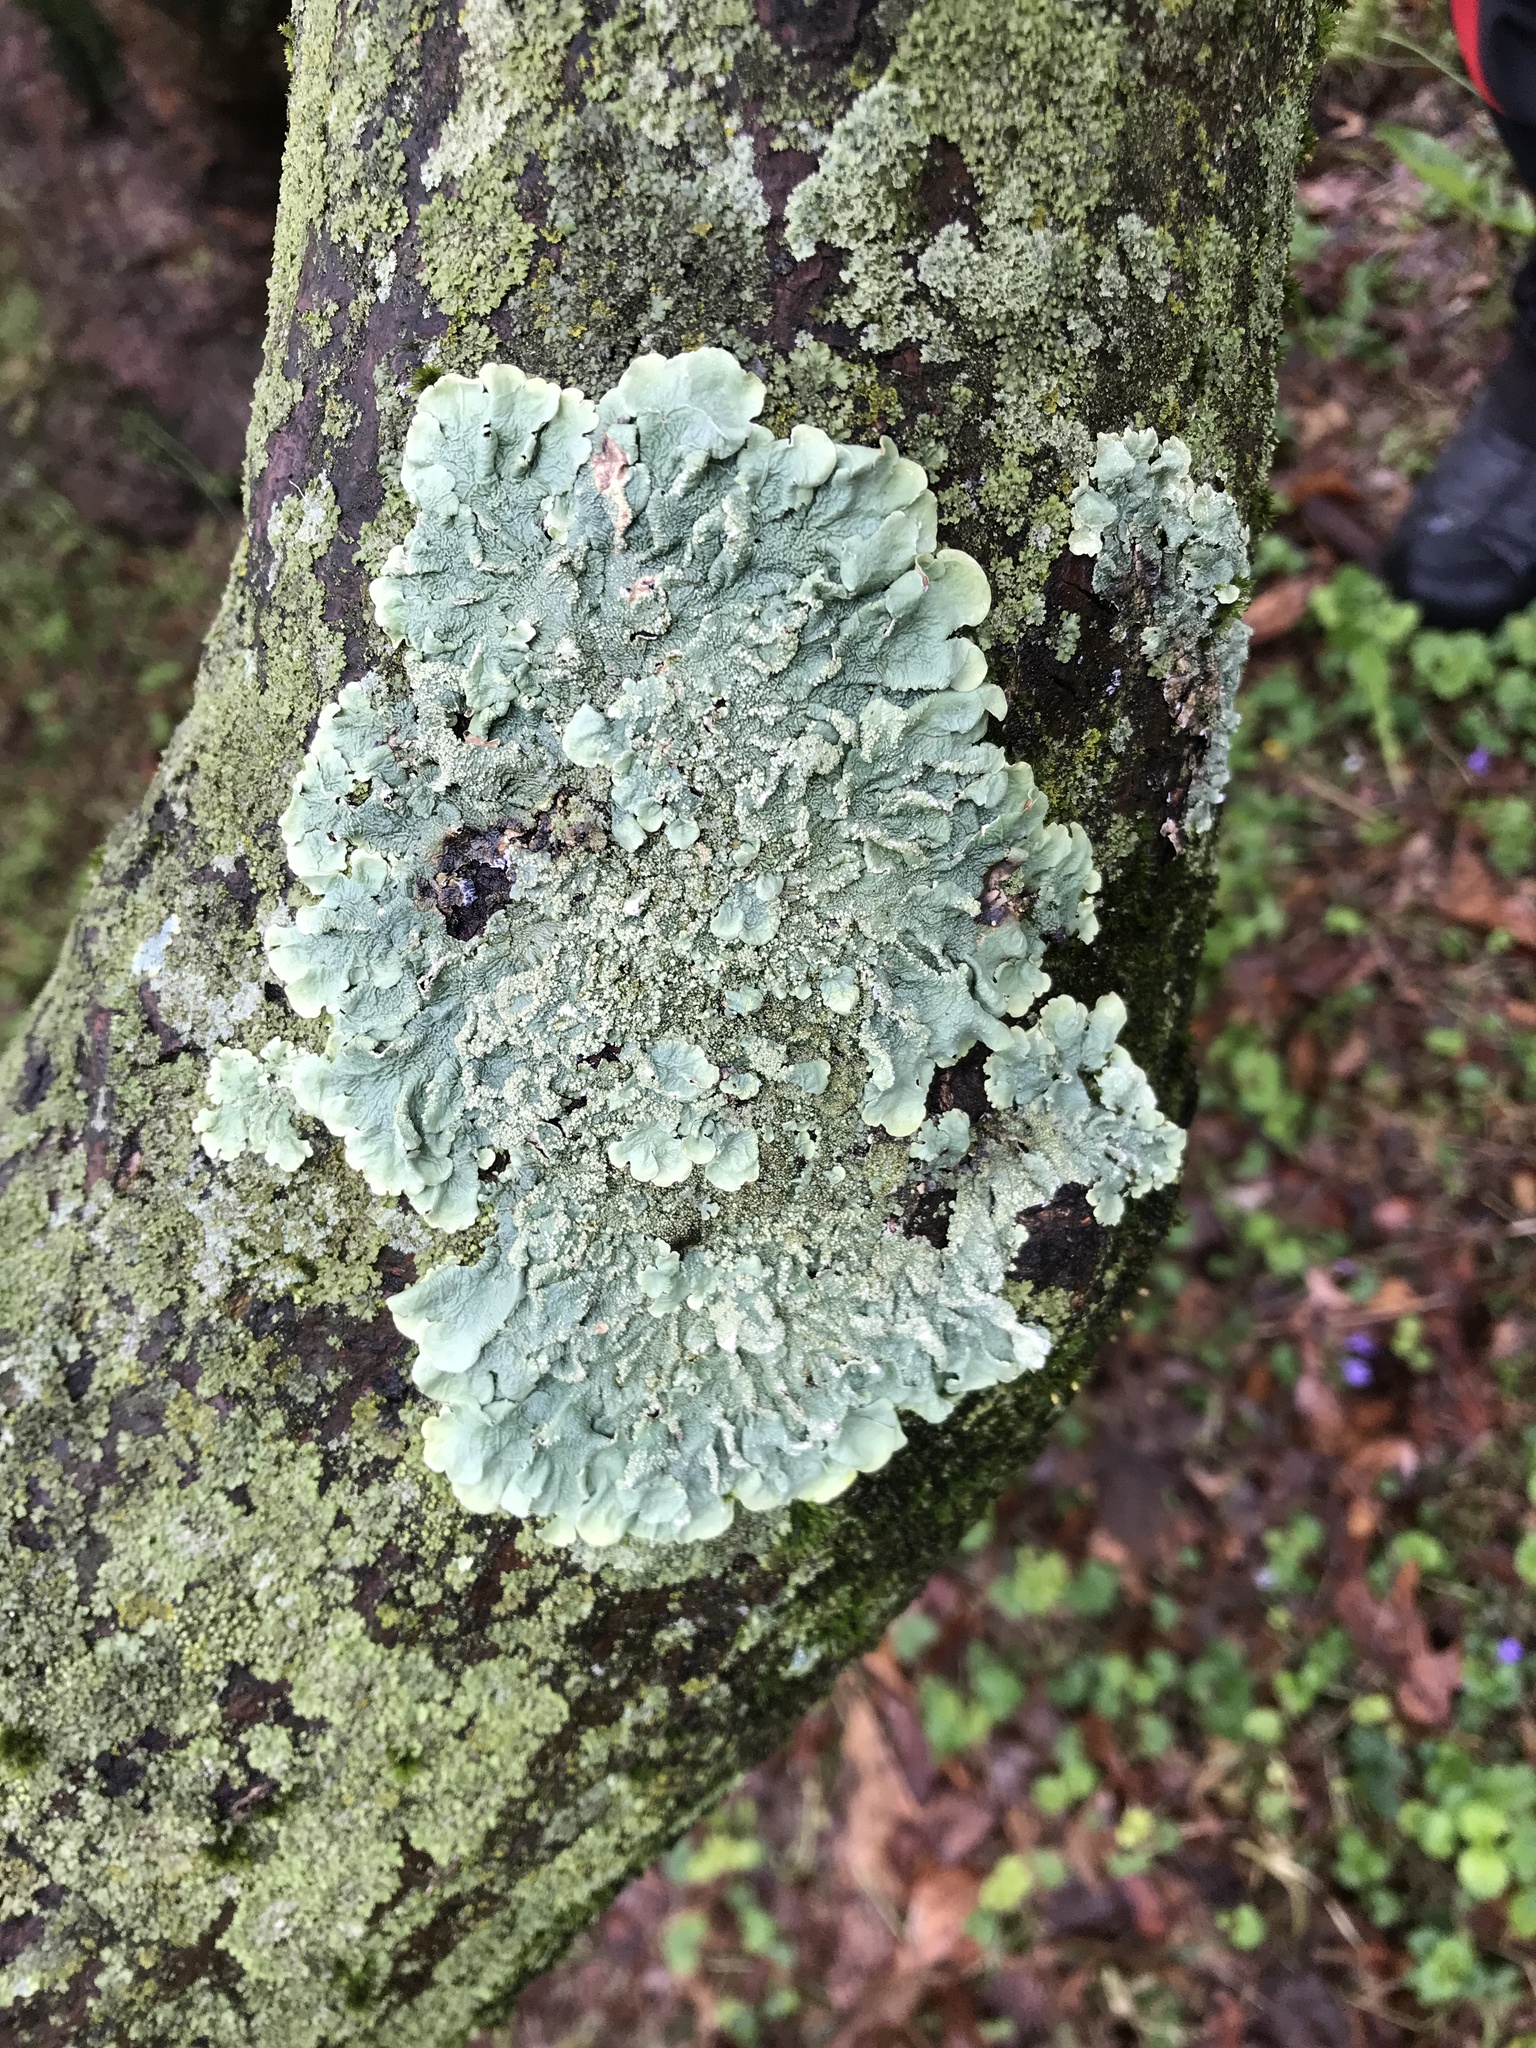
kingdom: Fungi
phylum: Ascomycota
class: Lecanoromycetes
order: Lecanorales
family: Parmeliaceae
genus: Flavoparmelia
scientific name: Flavoparmelia caperata
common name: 40-mile per hour lichen
